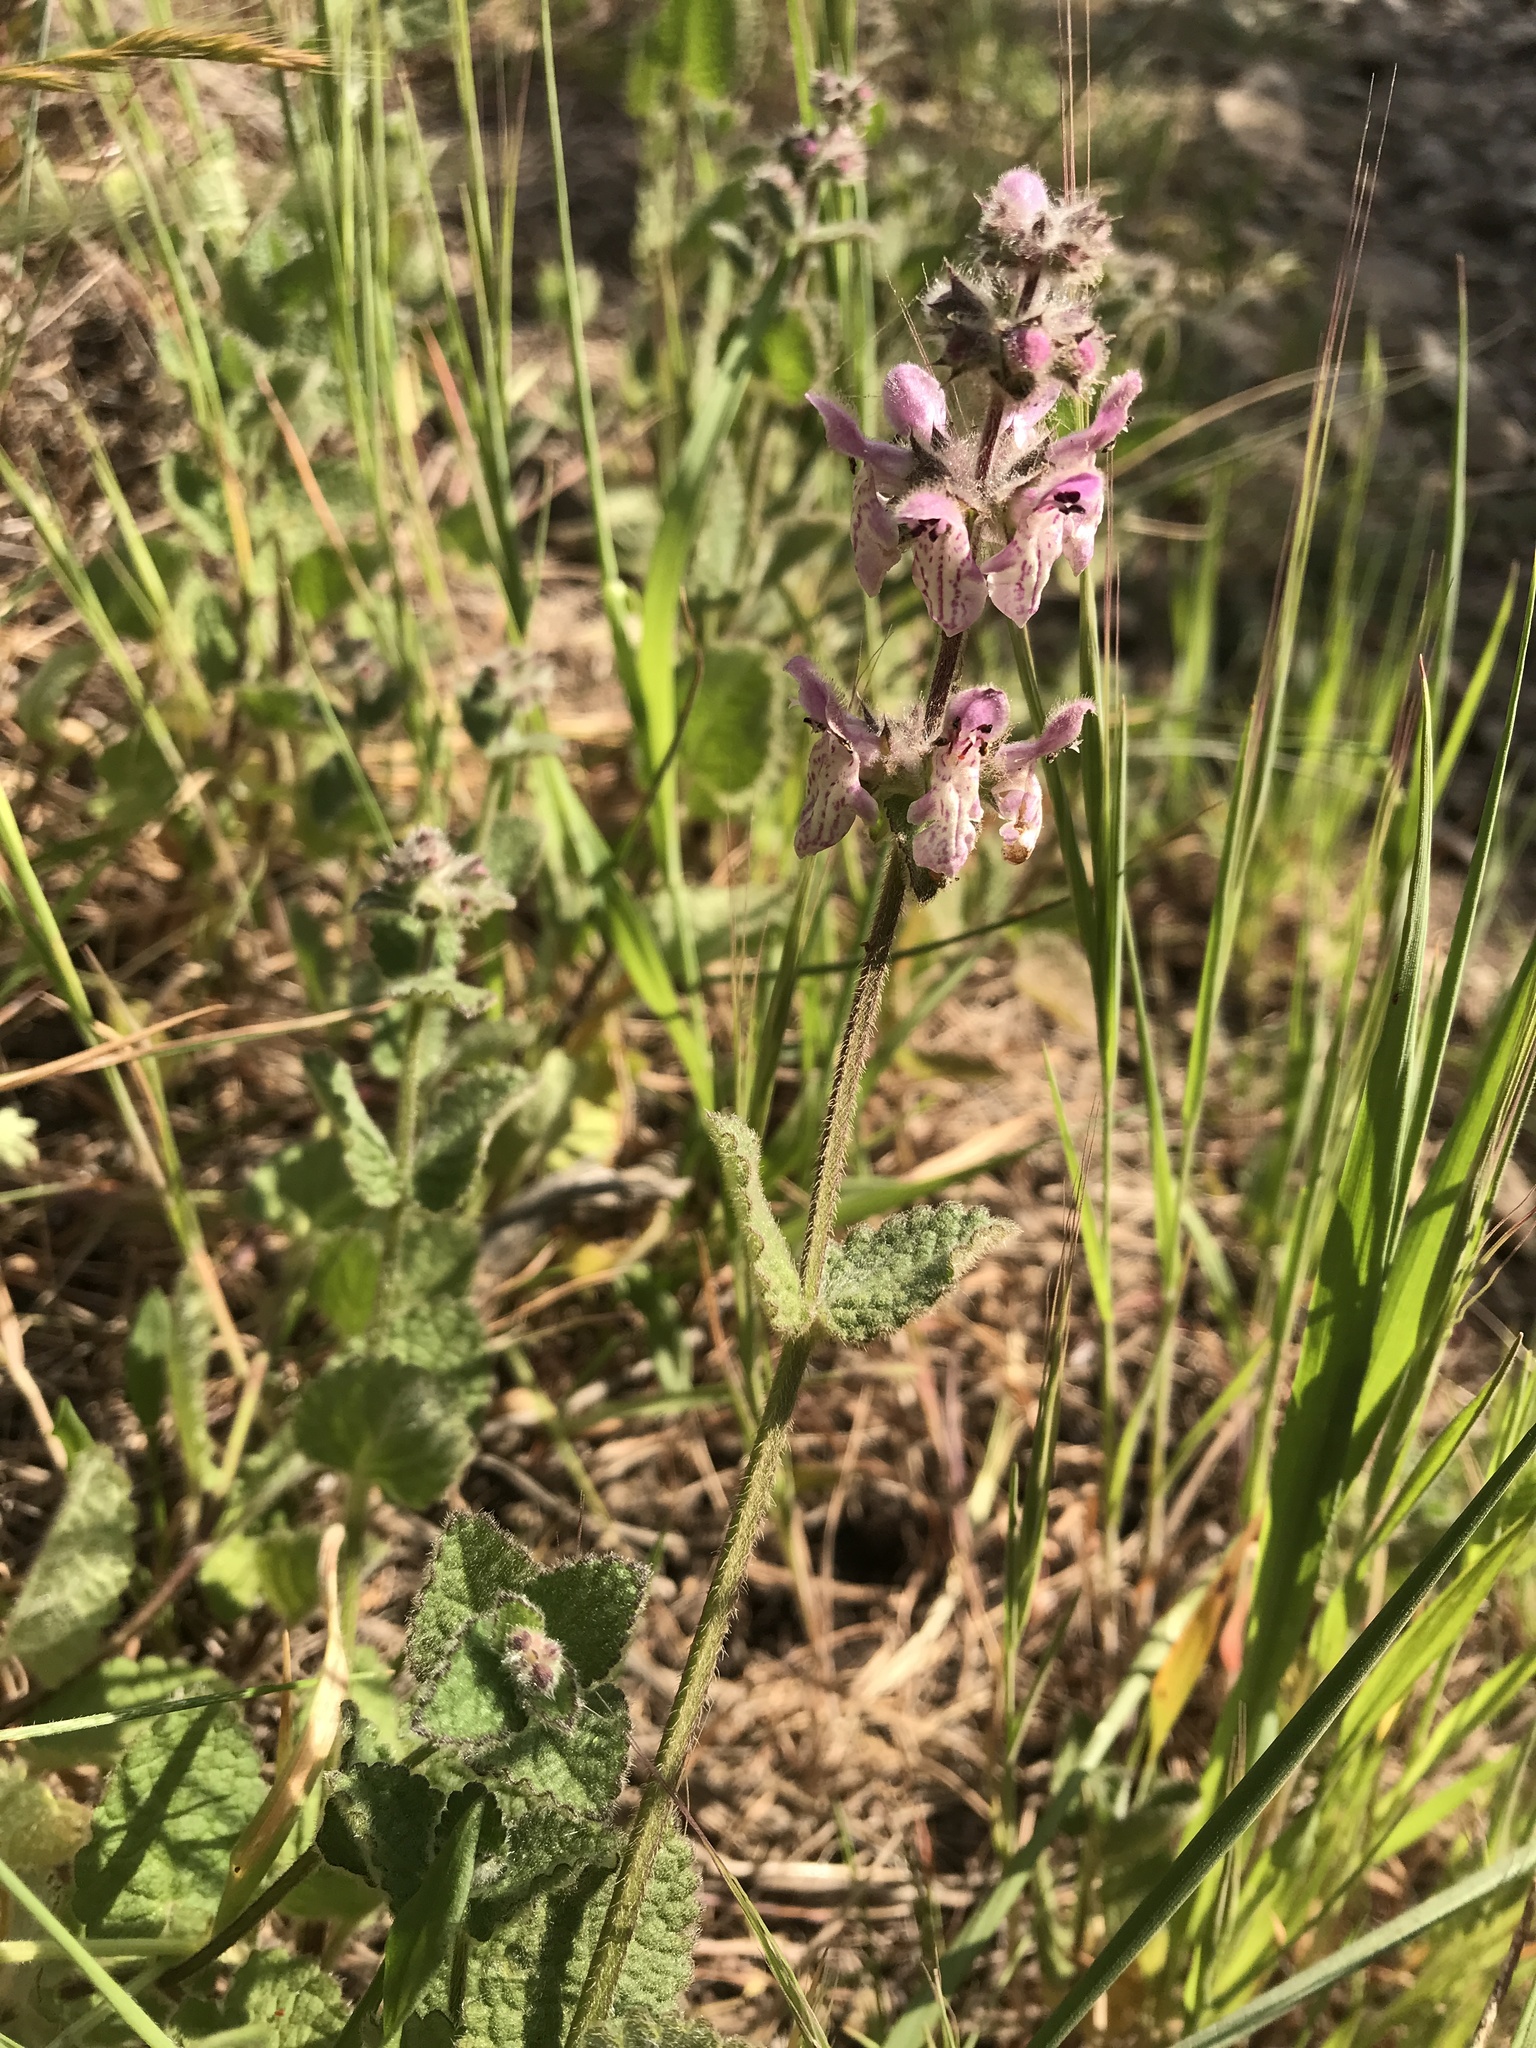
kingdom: Plantae
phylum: Tracheophyta
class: Magnoliopsida
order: Lamiales
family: Lamiaceae
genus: Stachys
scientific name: Stachys rigida
